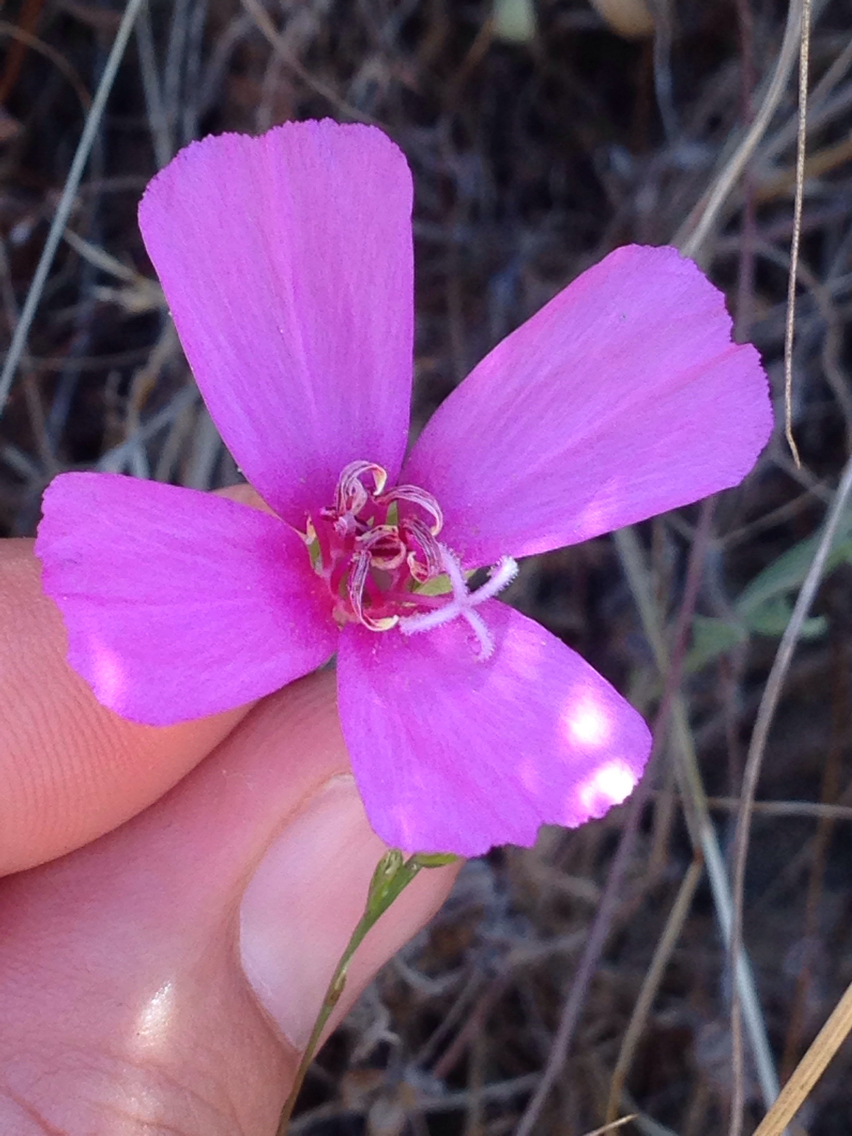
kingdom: Plantae
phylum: Tracheophyta
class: Magnoliopsida
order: Myrtales
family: Onagraceae
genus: Clarkia
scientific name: Clarkia rubicunda
